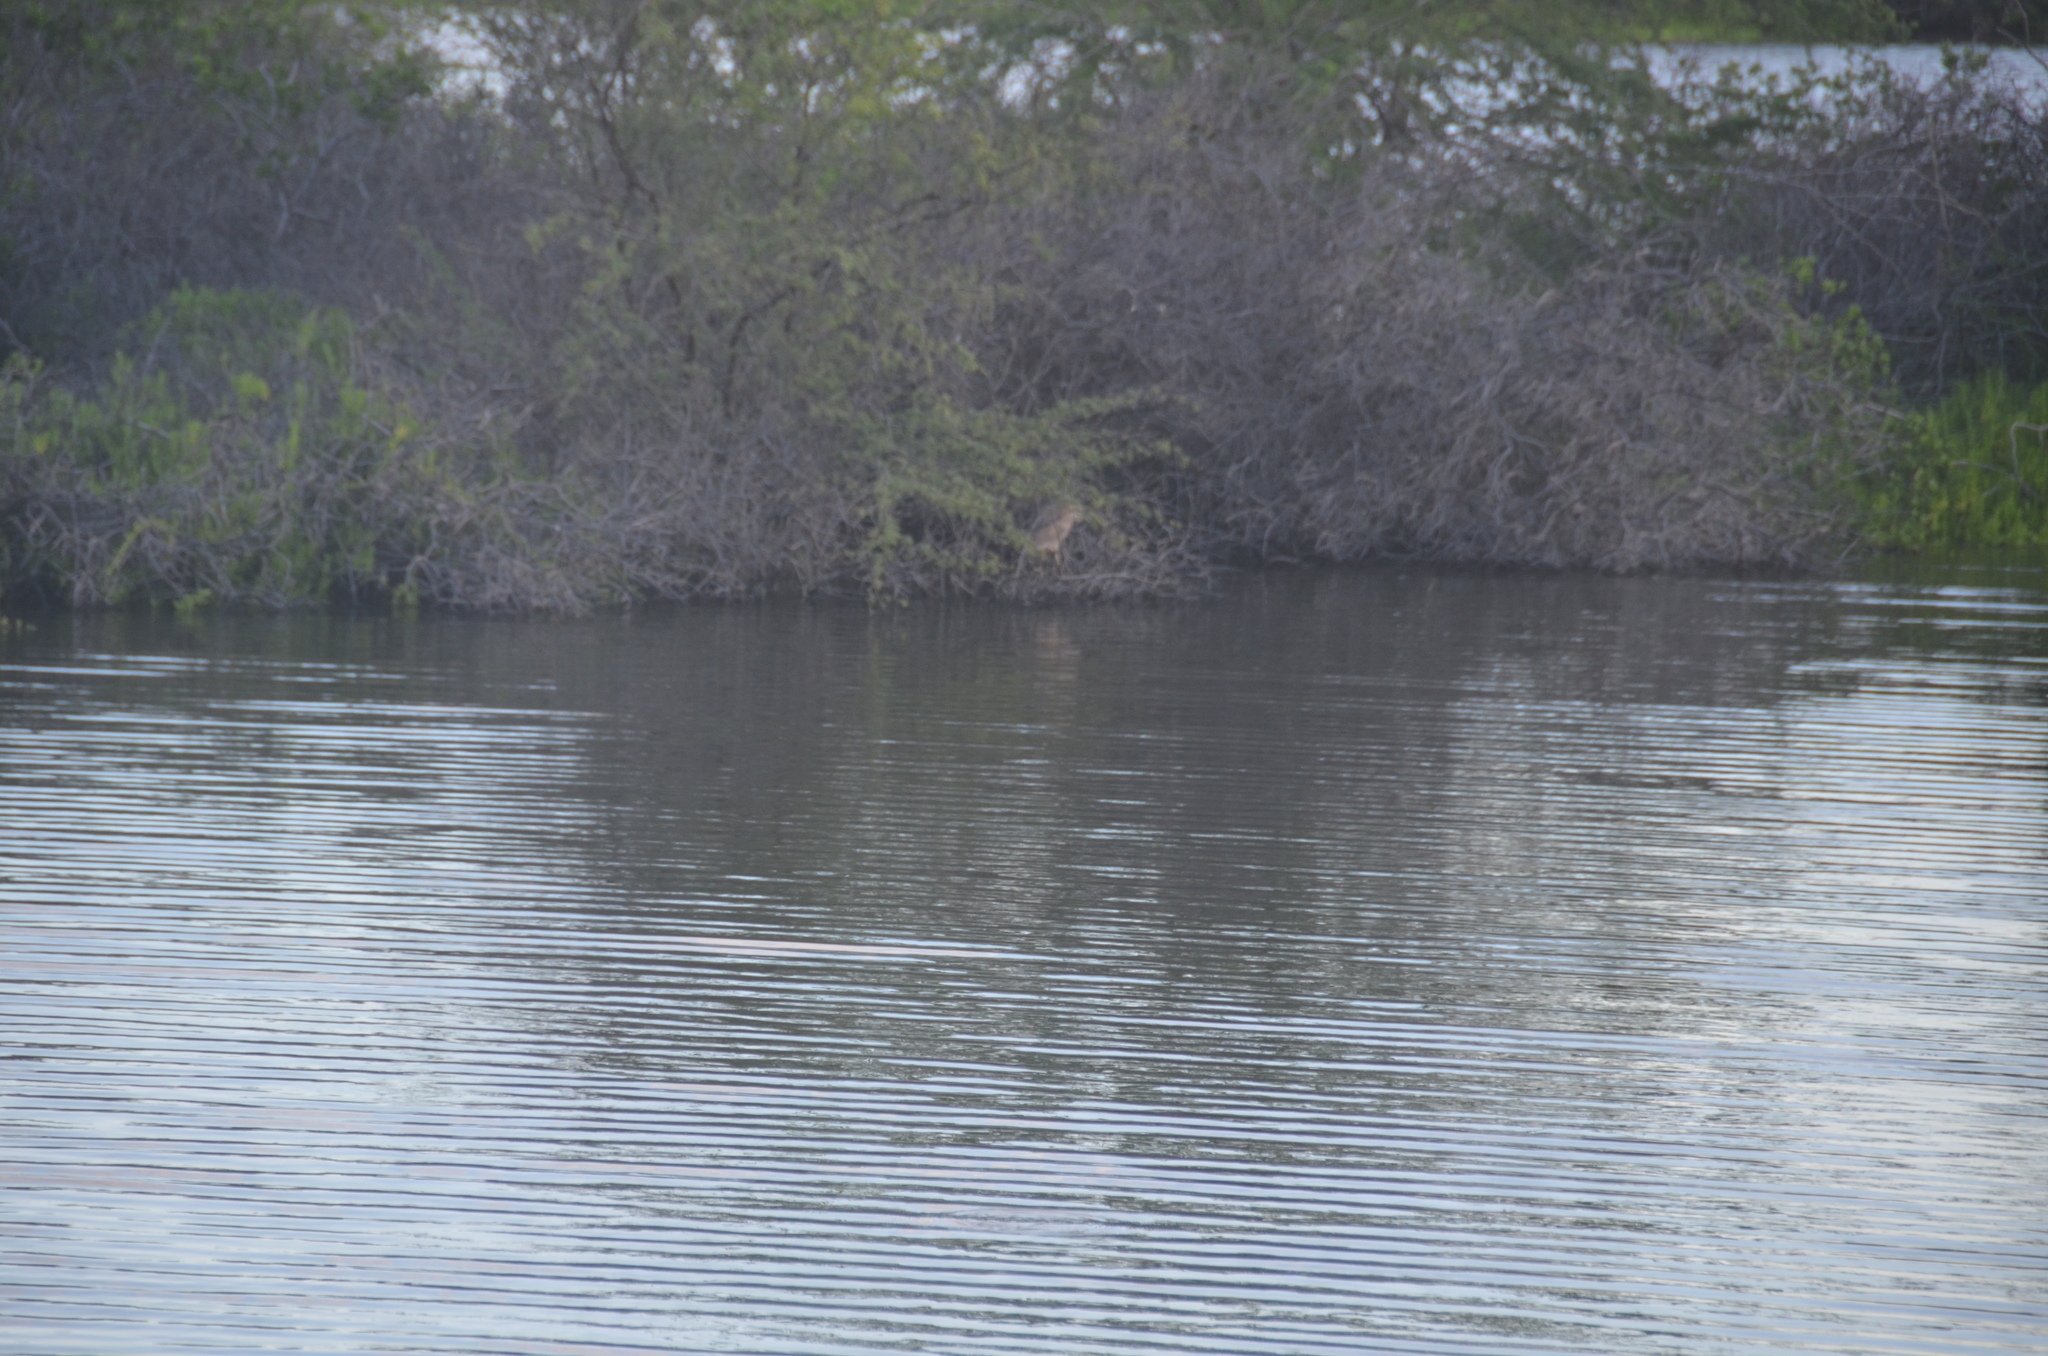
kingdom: Animalia
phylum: Chordata
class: Aves
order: Pelecaniformes
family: Ardeidae
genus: Nycticorax
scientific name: Nycticorax nycticorax
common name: Black-crowned night heron
